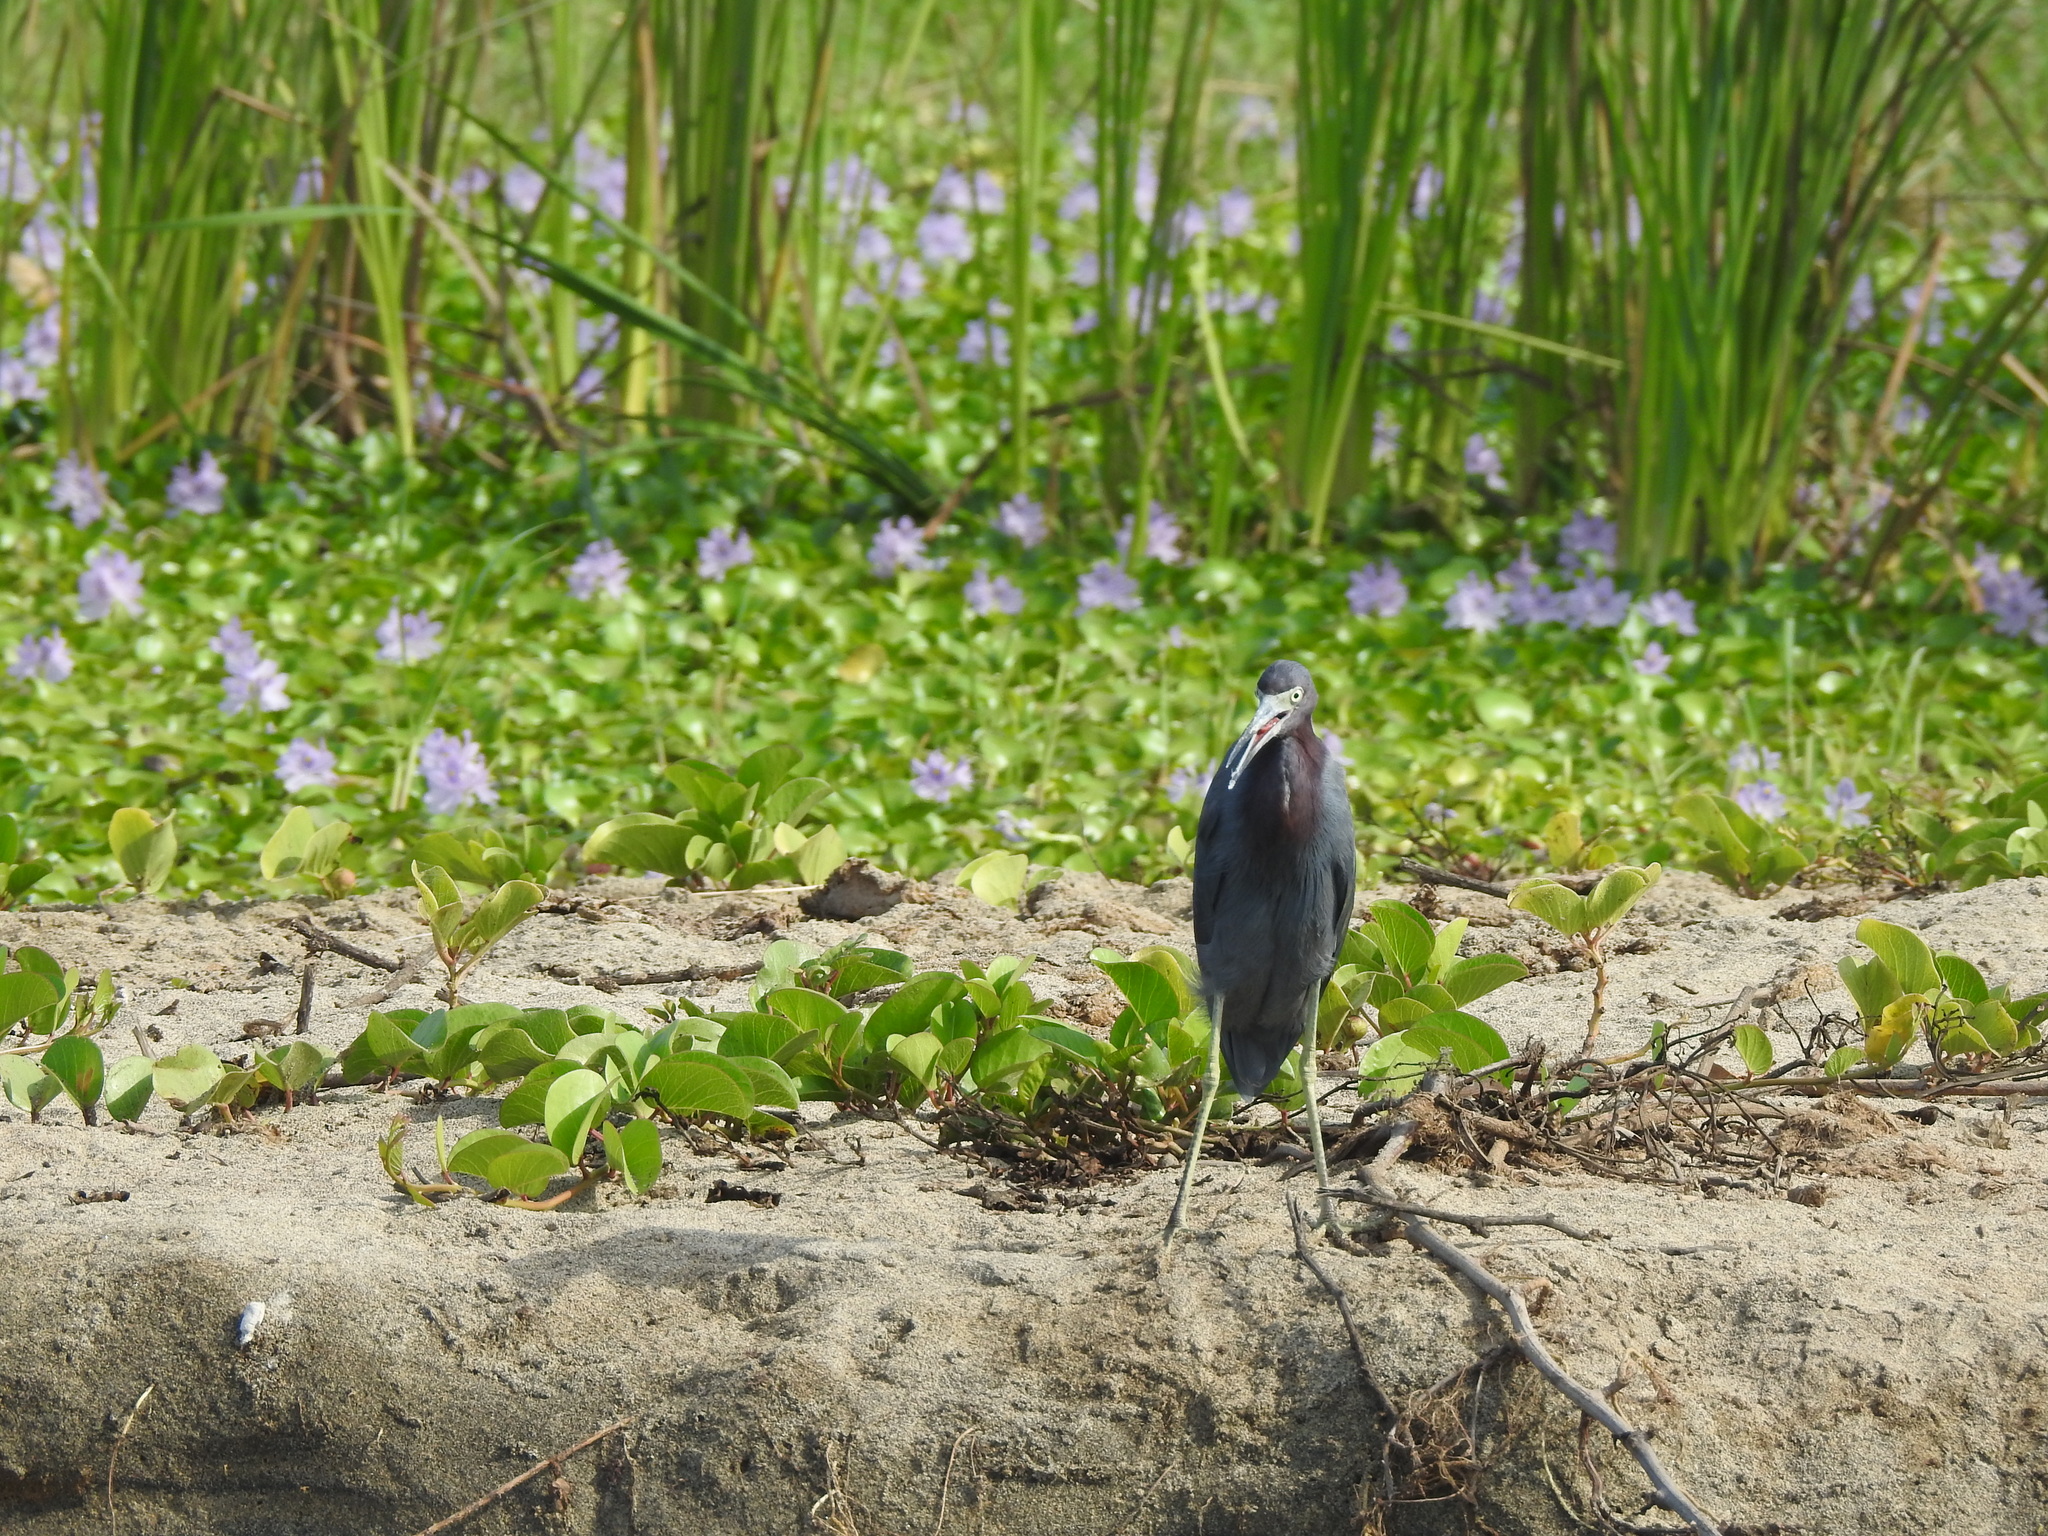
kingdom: Animalia
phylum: Chordata
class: Aves
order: Pelecaniformes
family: Ardeidae
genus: Egretta
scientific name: Egretta caerulea
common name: Little blue heron
